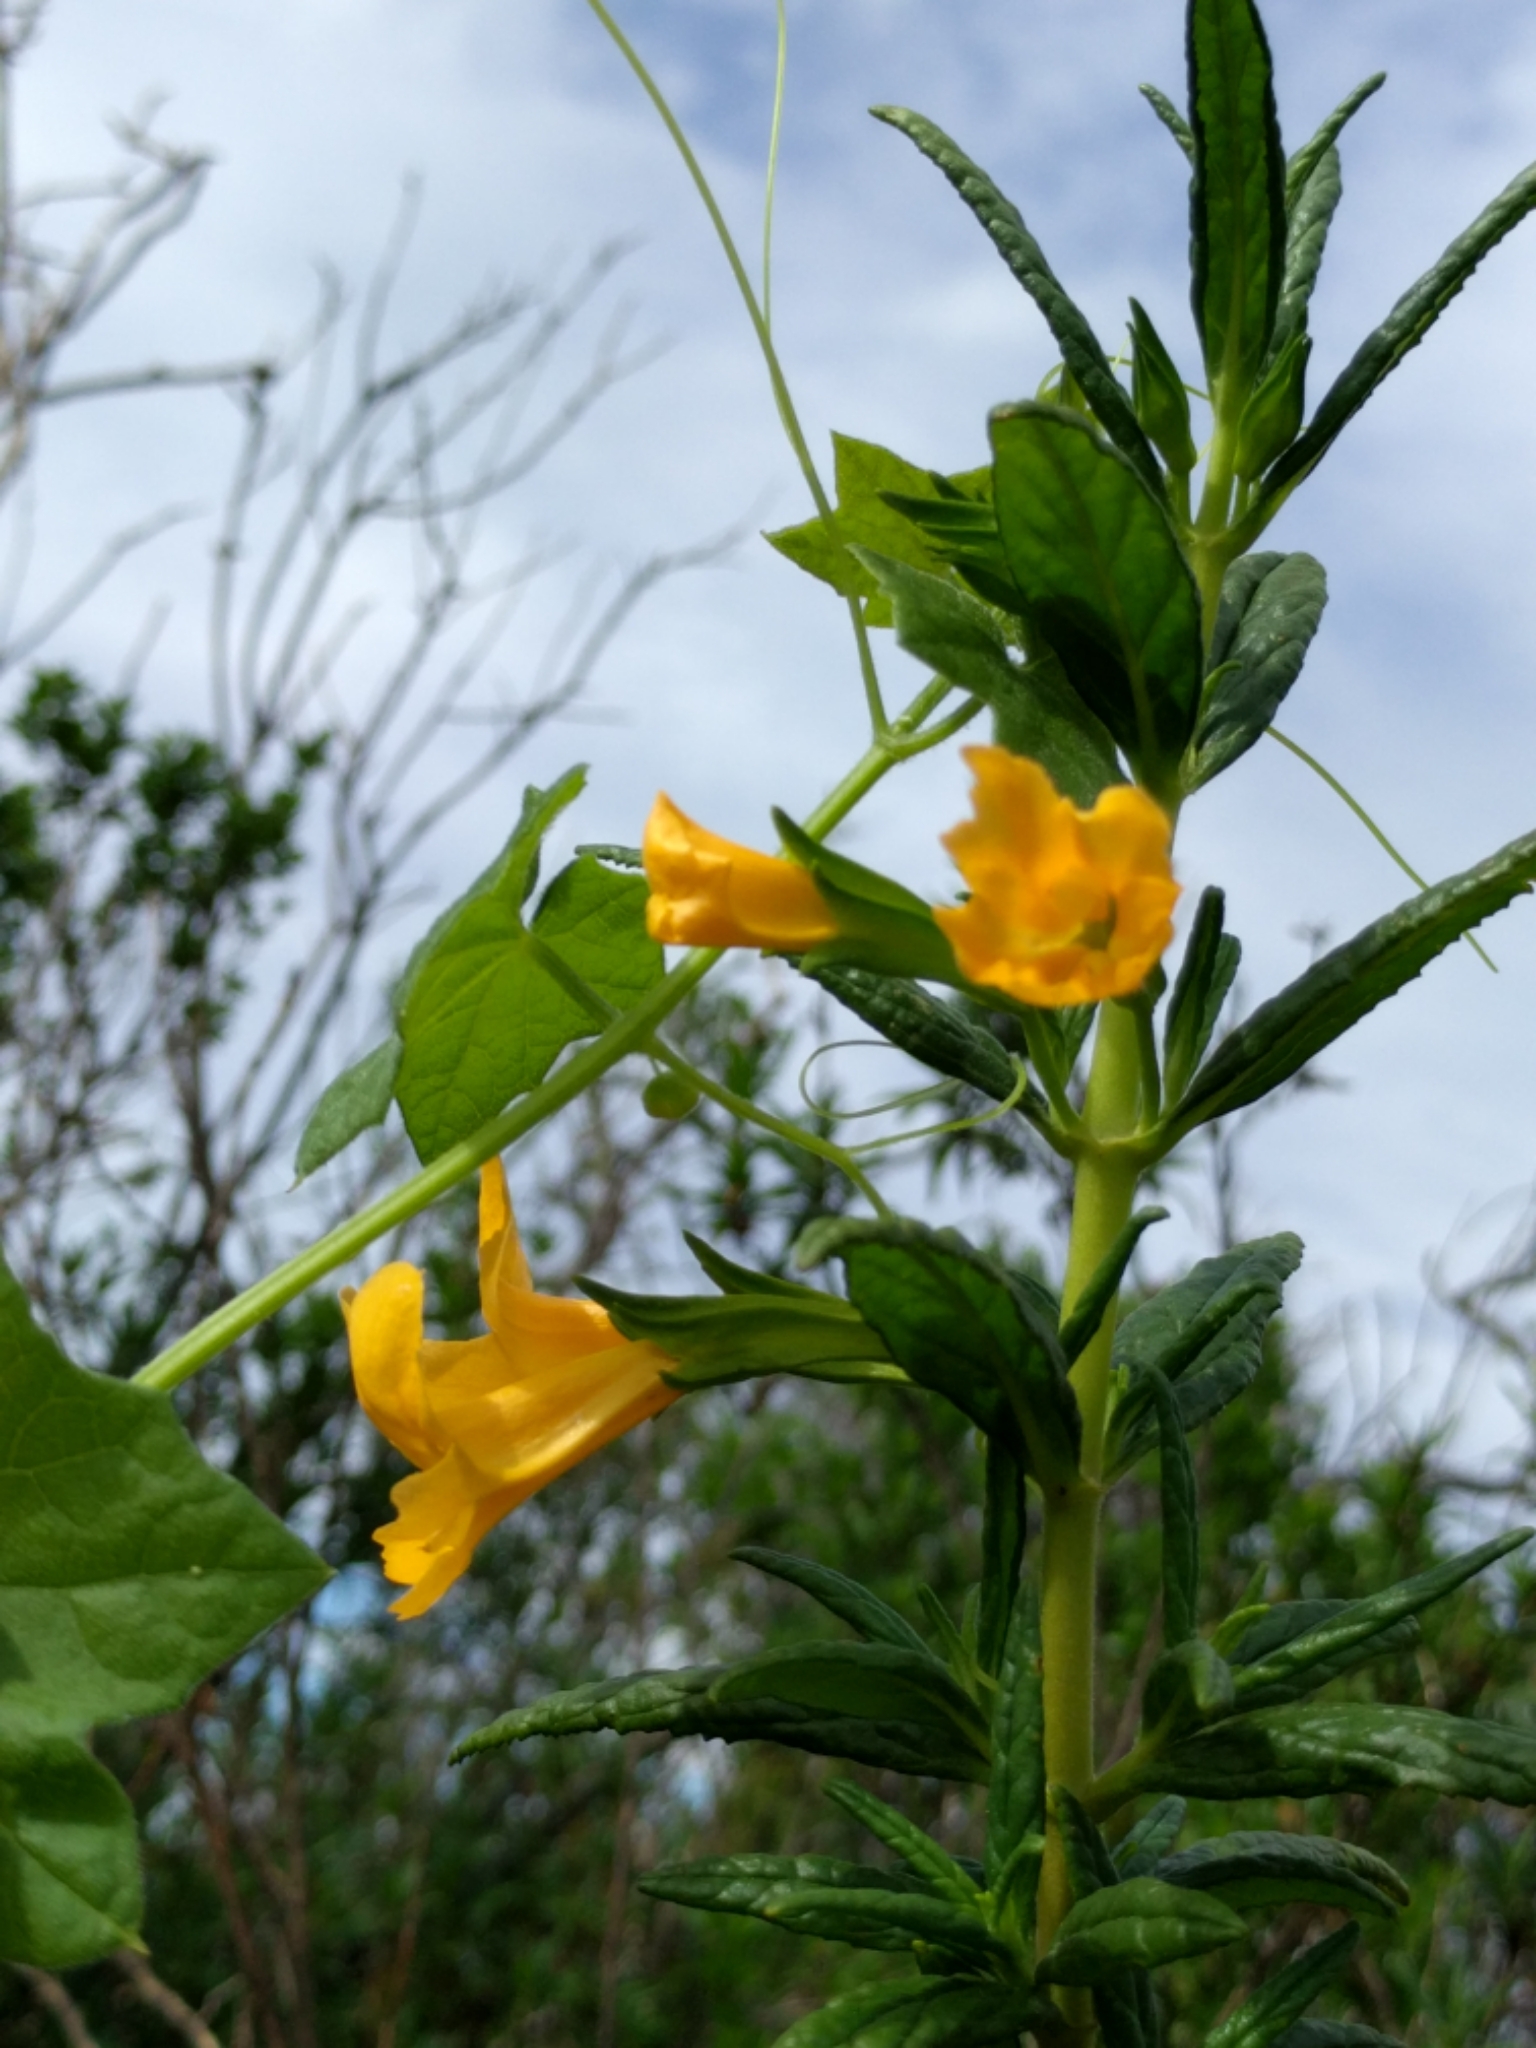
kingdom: Plantae
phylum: Tracheophyta
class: Magnoliopsida
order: Lamiales
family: Phrymaceae
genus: Diplacus
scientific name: Diplacus aurantiacus
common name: Bush monkey-flower
